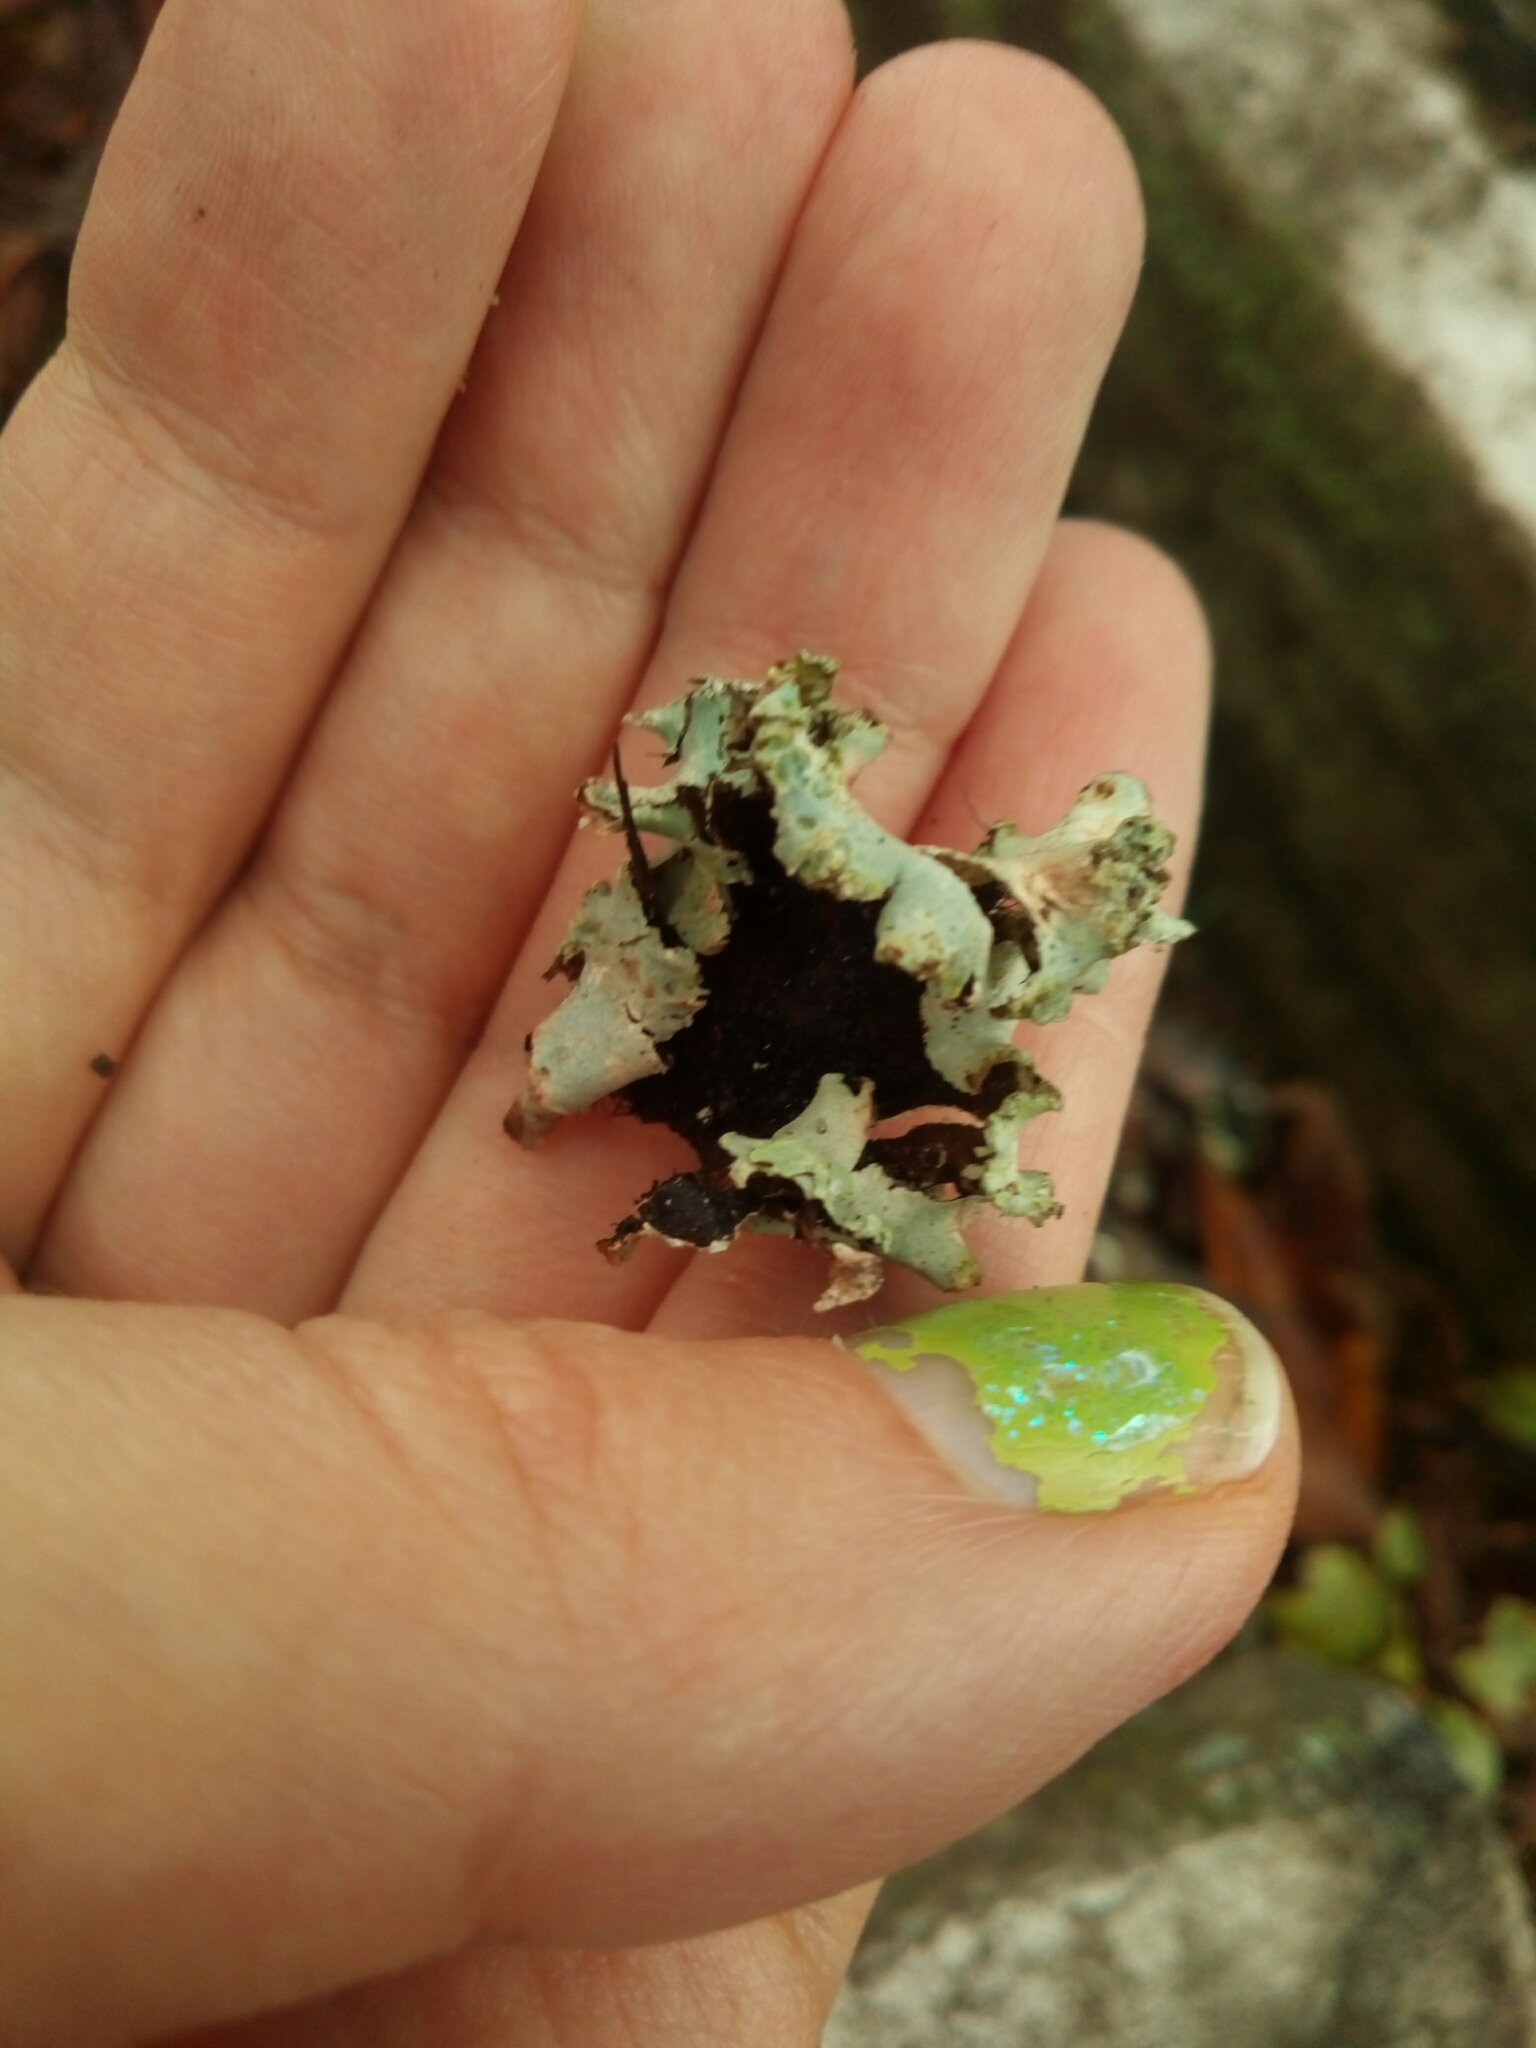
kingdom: Fungi
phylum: Ascomycota
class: Lecanoromycetes
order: Lecanorales
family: Parmeliaceae
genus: Parmotrema
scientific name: Parmotrema hypotropum
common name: Powdered ruffle lichen
